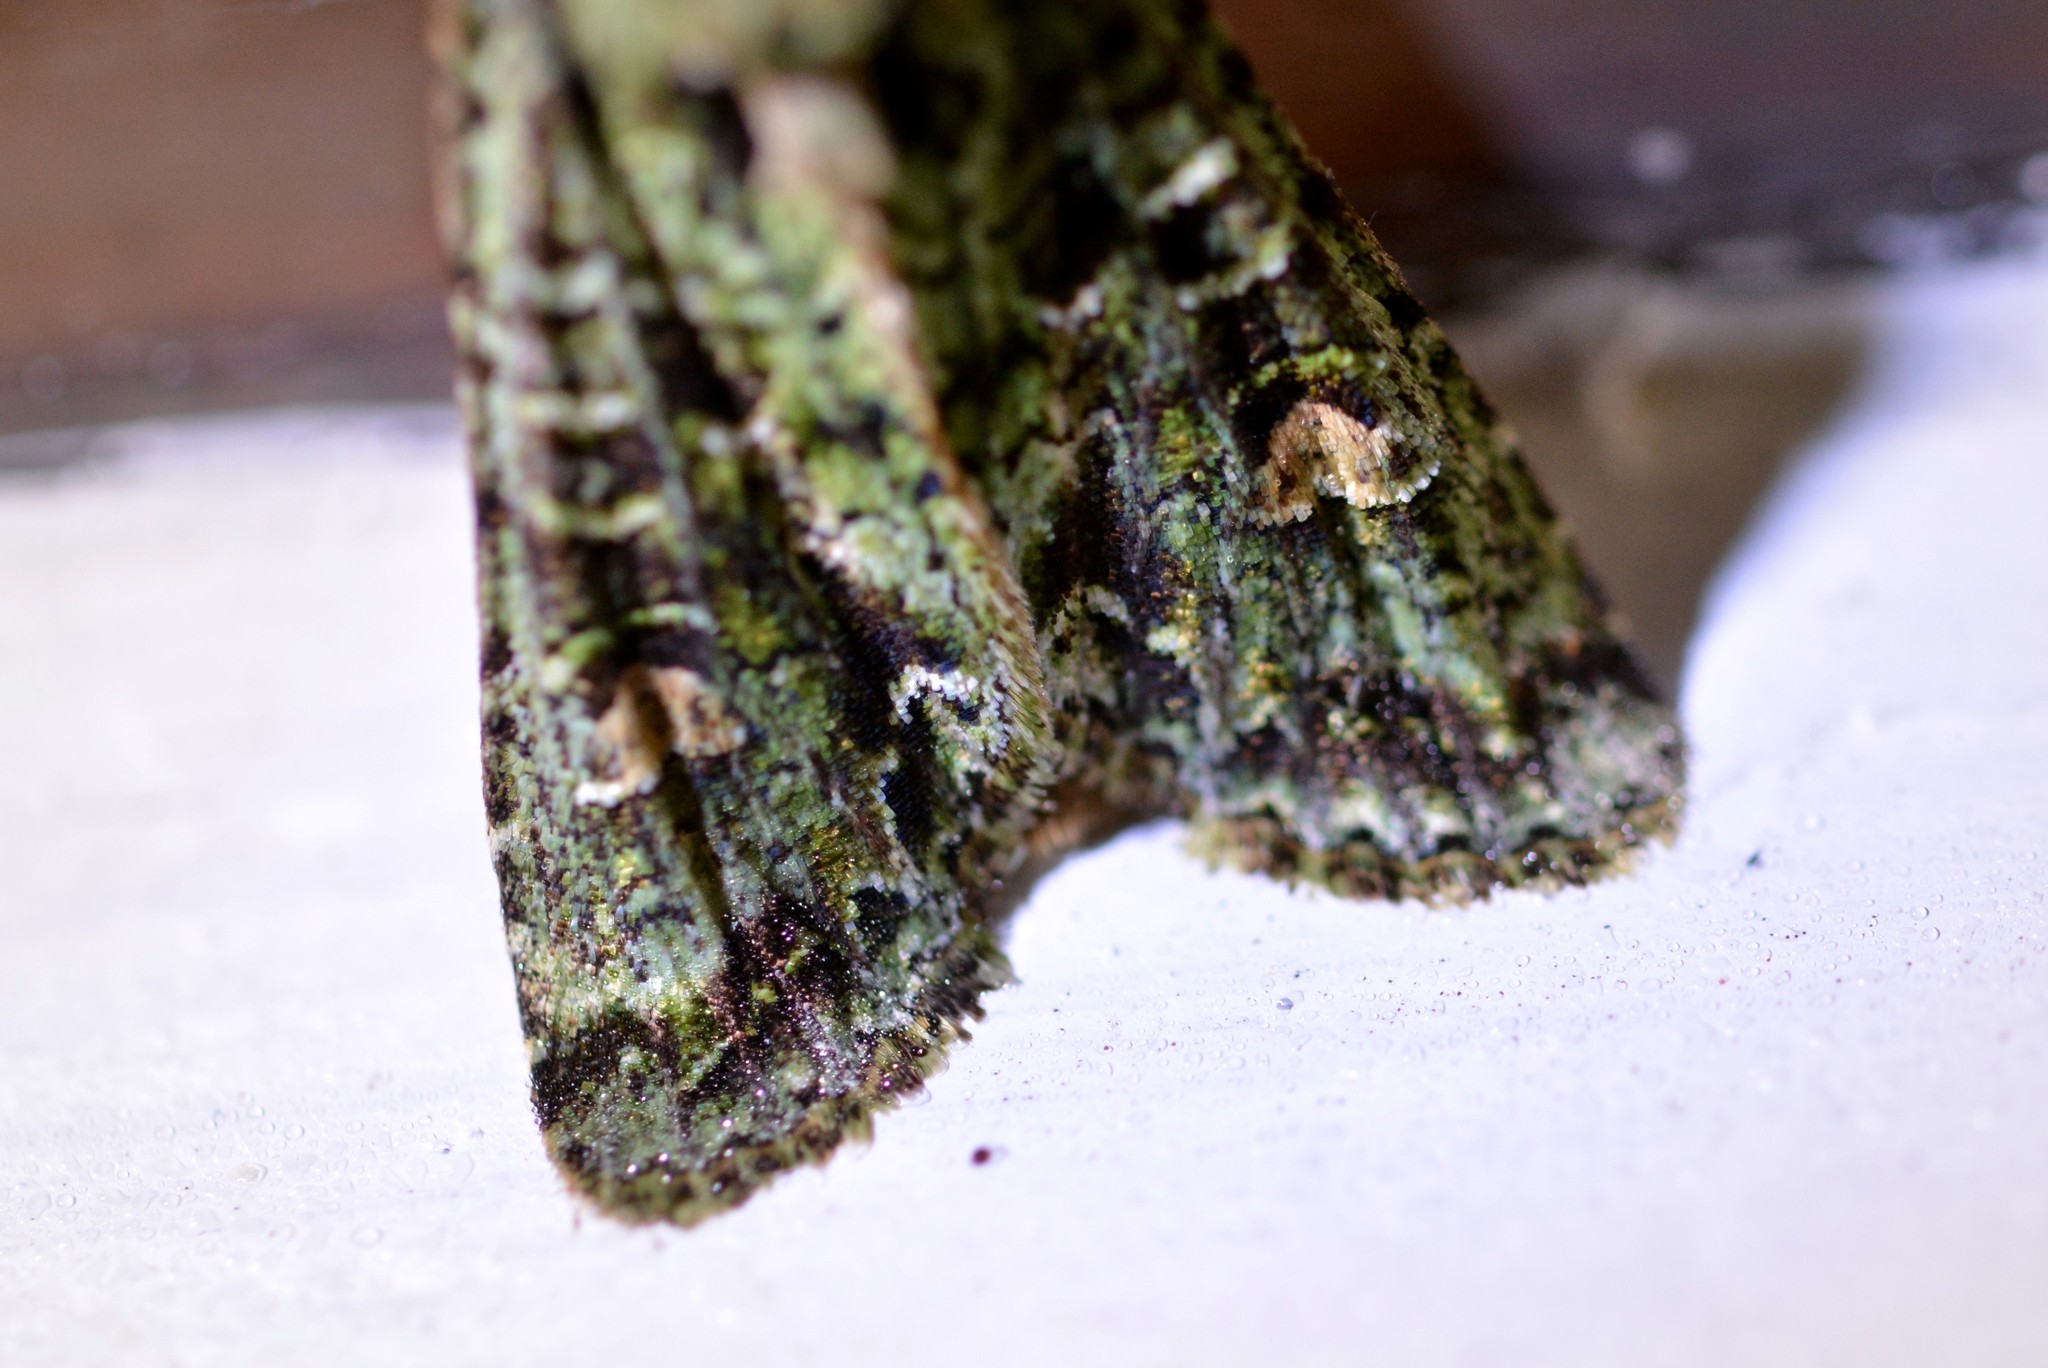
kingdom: Animalia
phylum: Arthropoda
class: Insecta
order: Lepidoptera
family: Noctuidae
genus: Ichneutica
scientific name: Ichneutica
